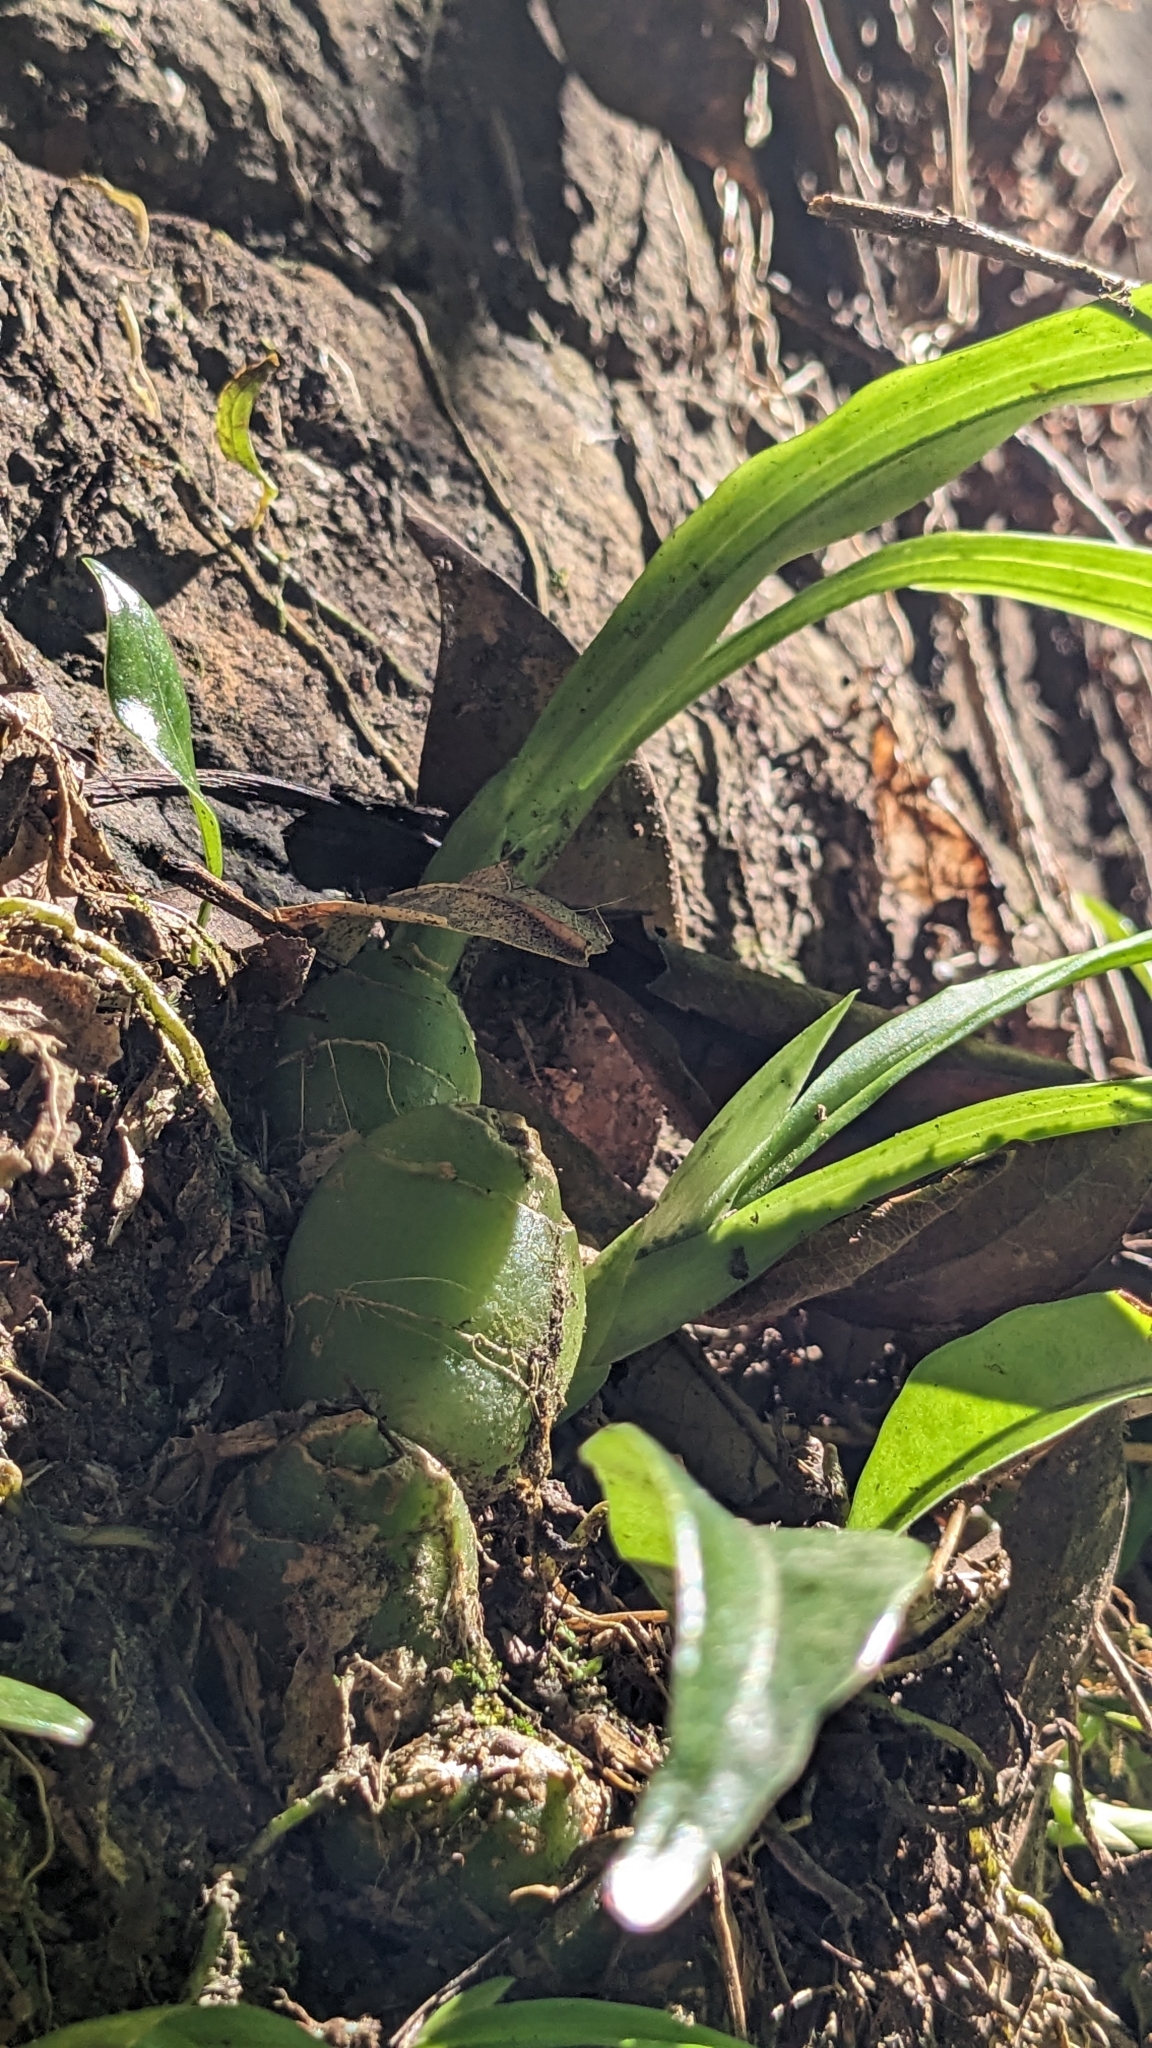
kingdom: Plantae
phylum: Tracheophyta
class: Liliopsida
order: Asparagales
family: Orchidaceae
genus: Liparis
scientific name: Liparis nakaharae
